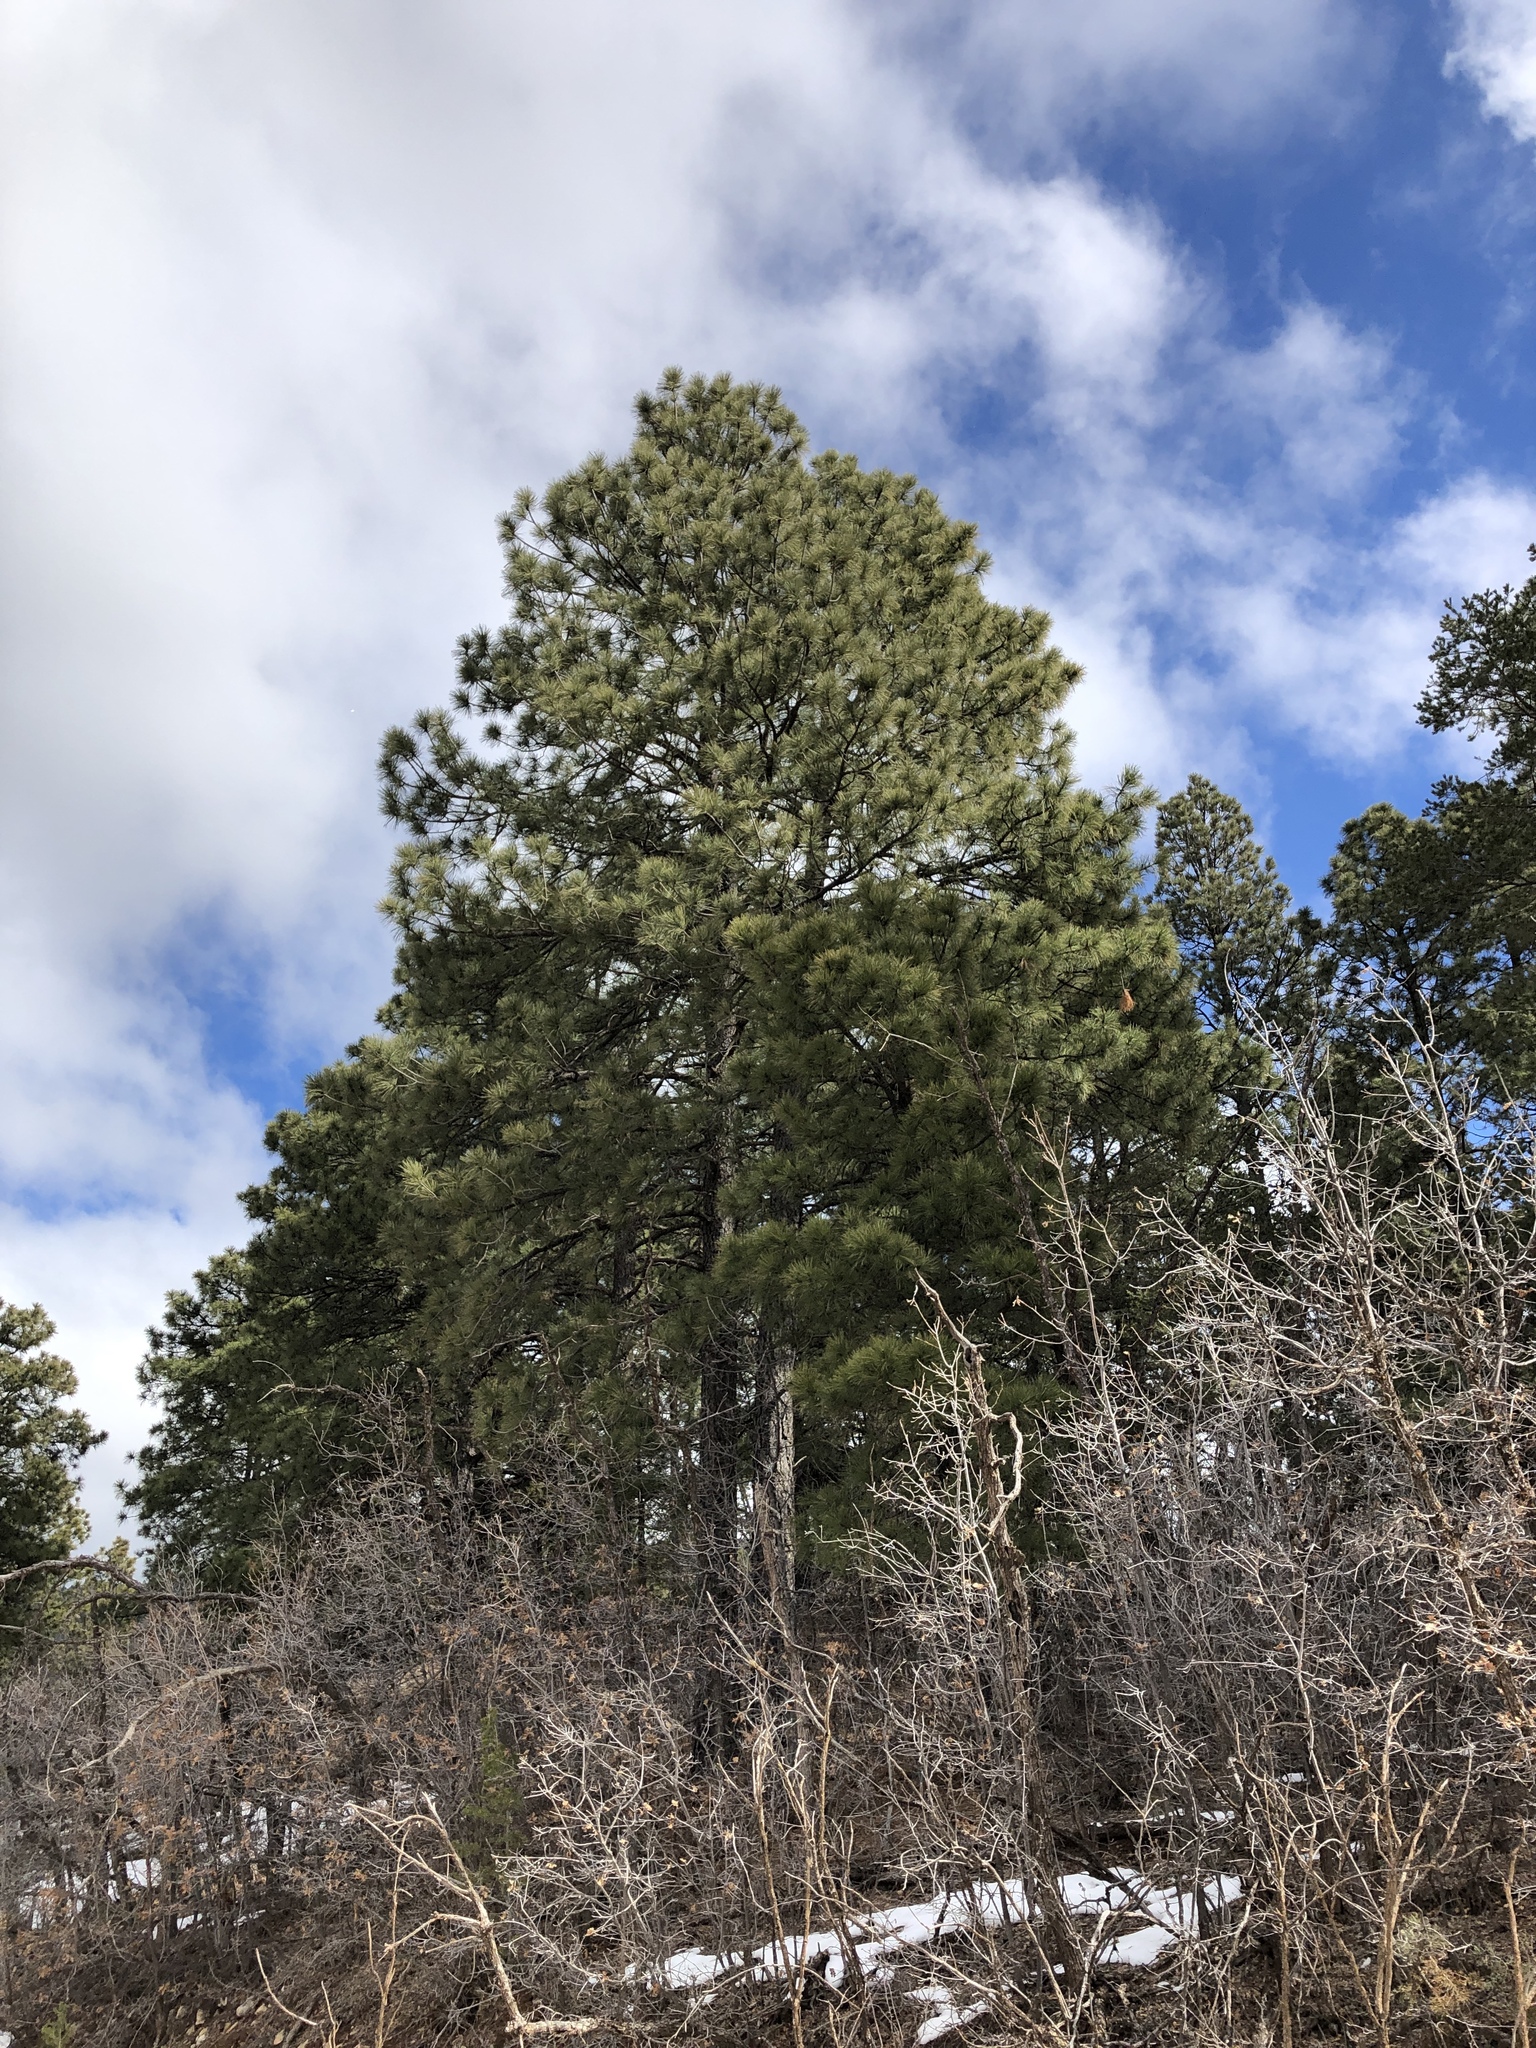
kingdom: Plantae
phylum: Tracheophyta
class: Pinopsida
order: Pinales
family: Pinaceae
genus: Pinus
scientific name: Pinus ponderosa
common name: Western yellow-pine
